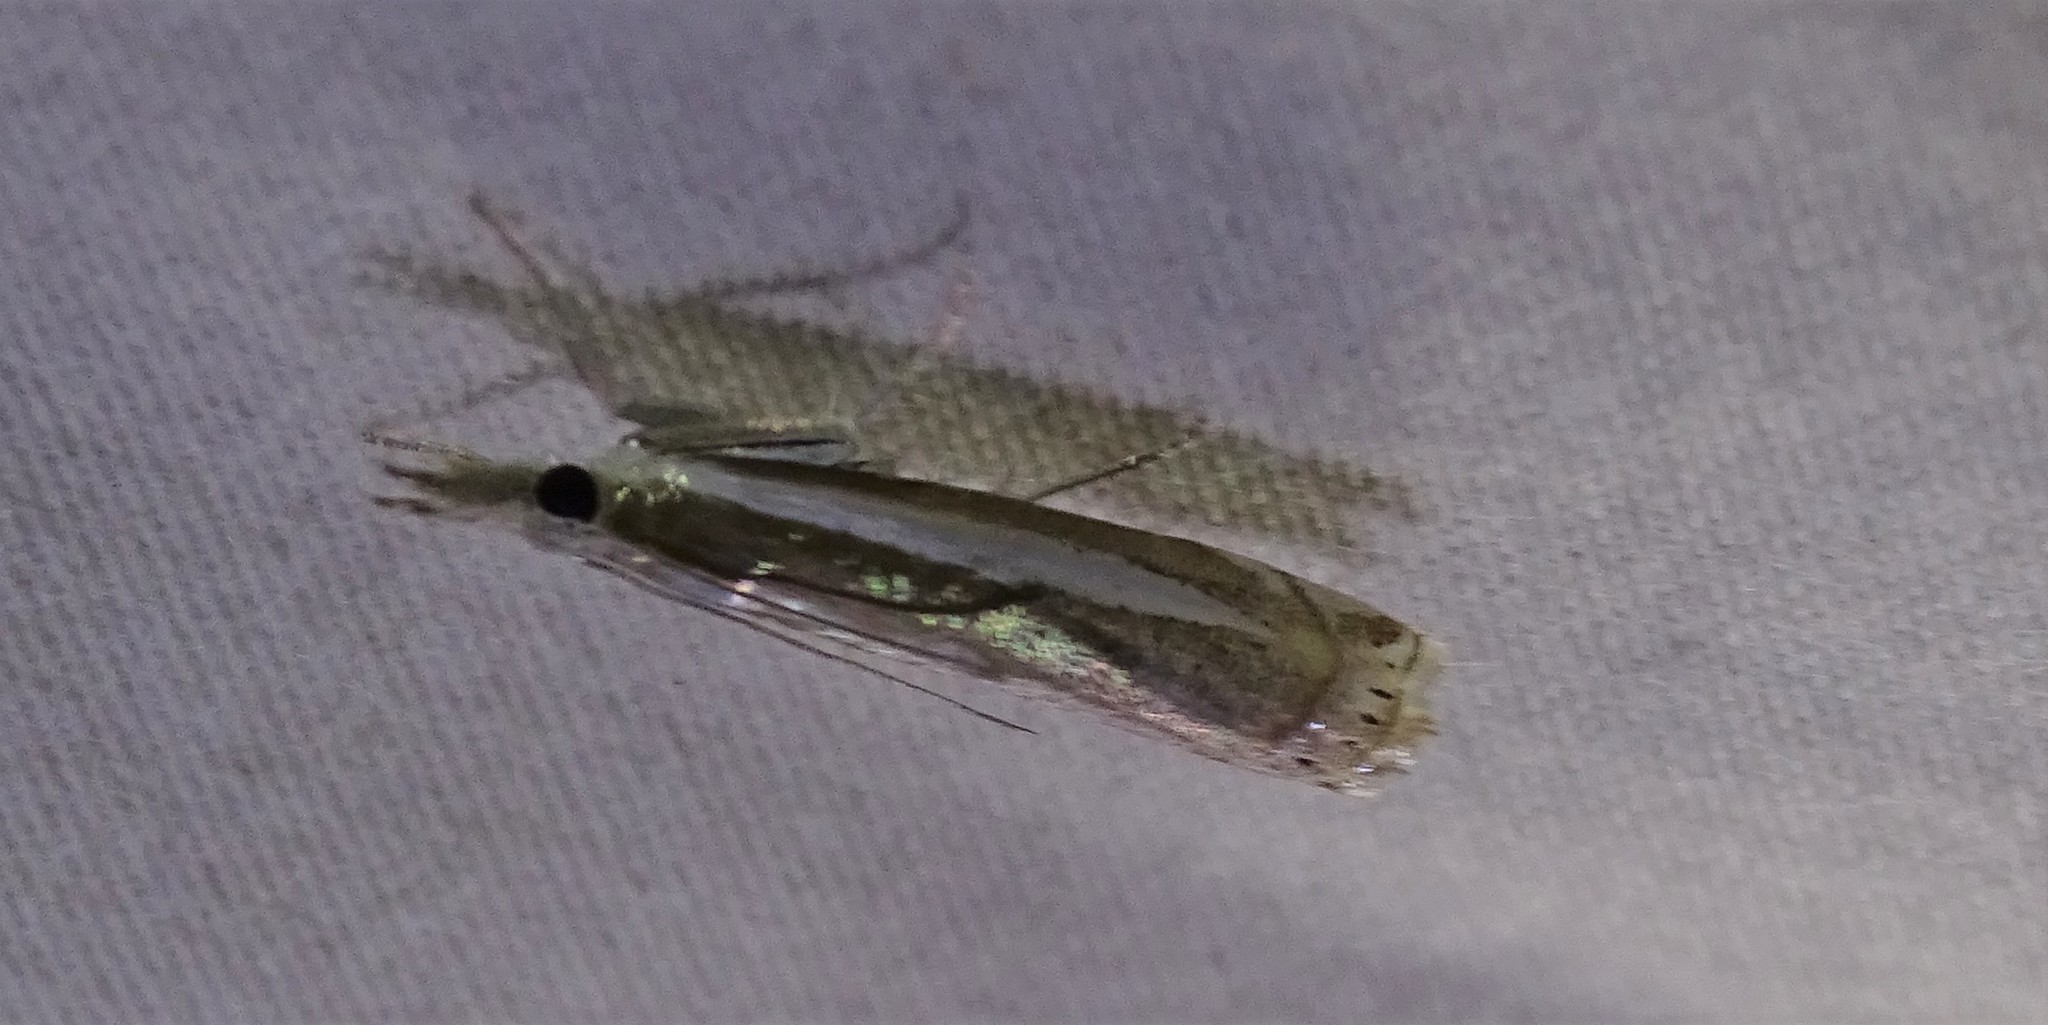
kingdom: Animalia
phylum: Arthropoda
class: Insecta
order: Lepidoptera
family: Crambidae
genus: Crambus
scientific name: Crambus praefectellus
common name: Common grass-veneer
